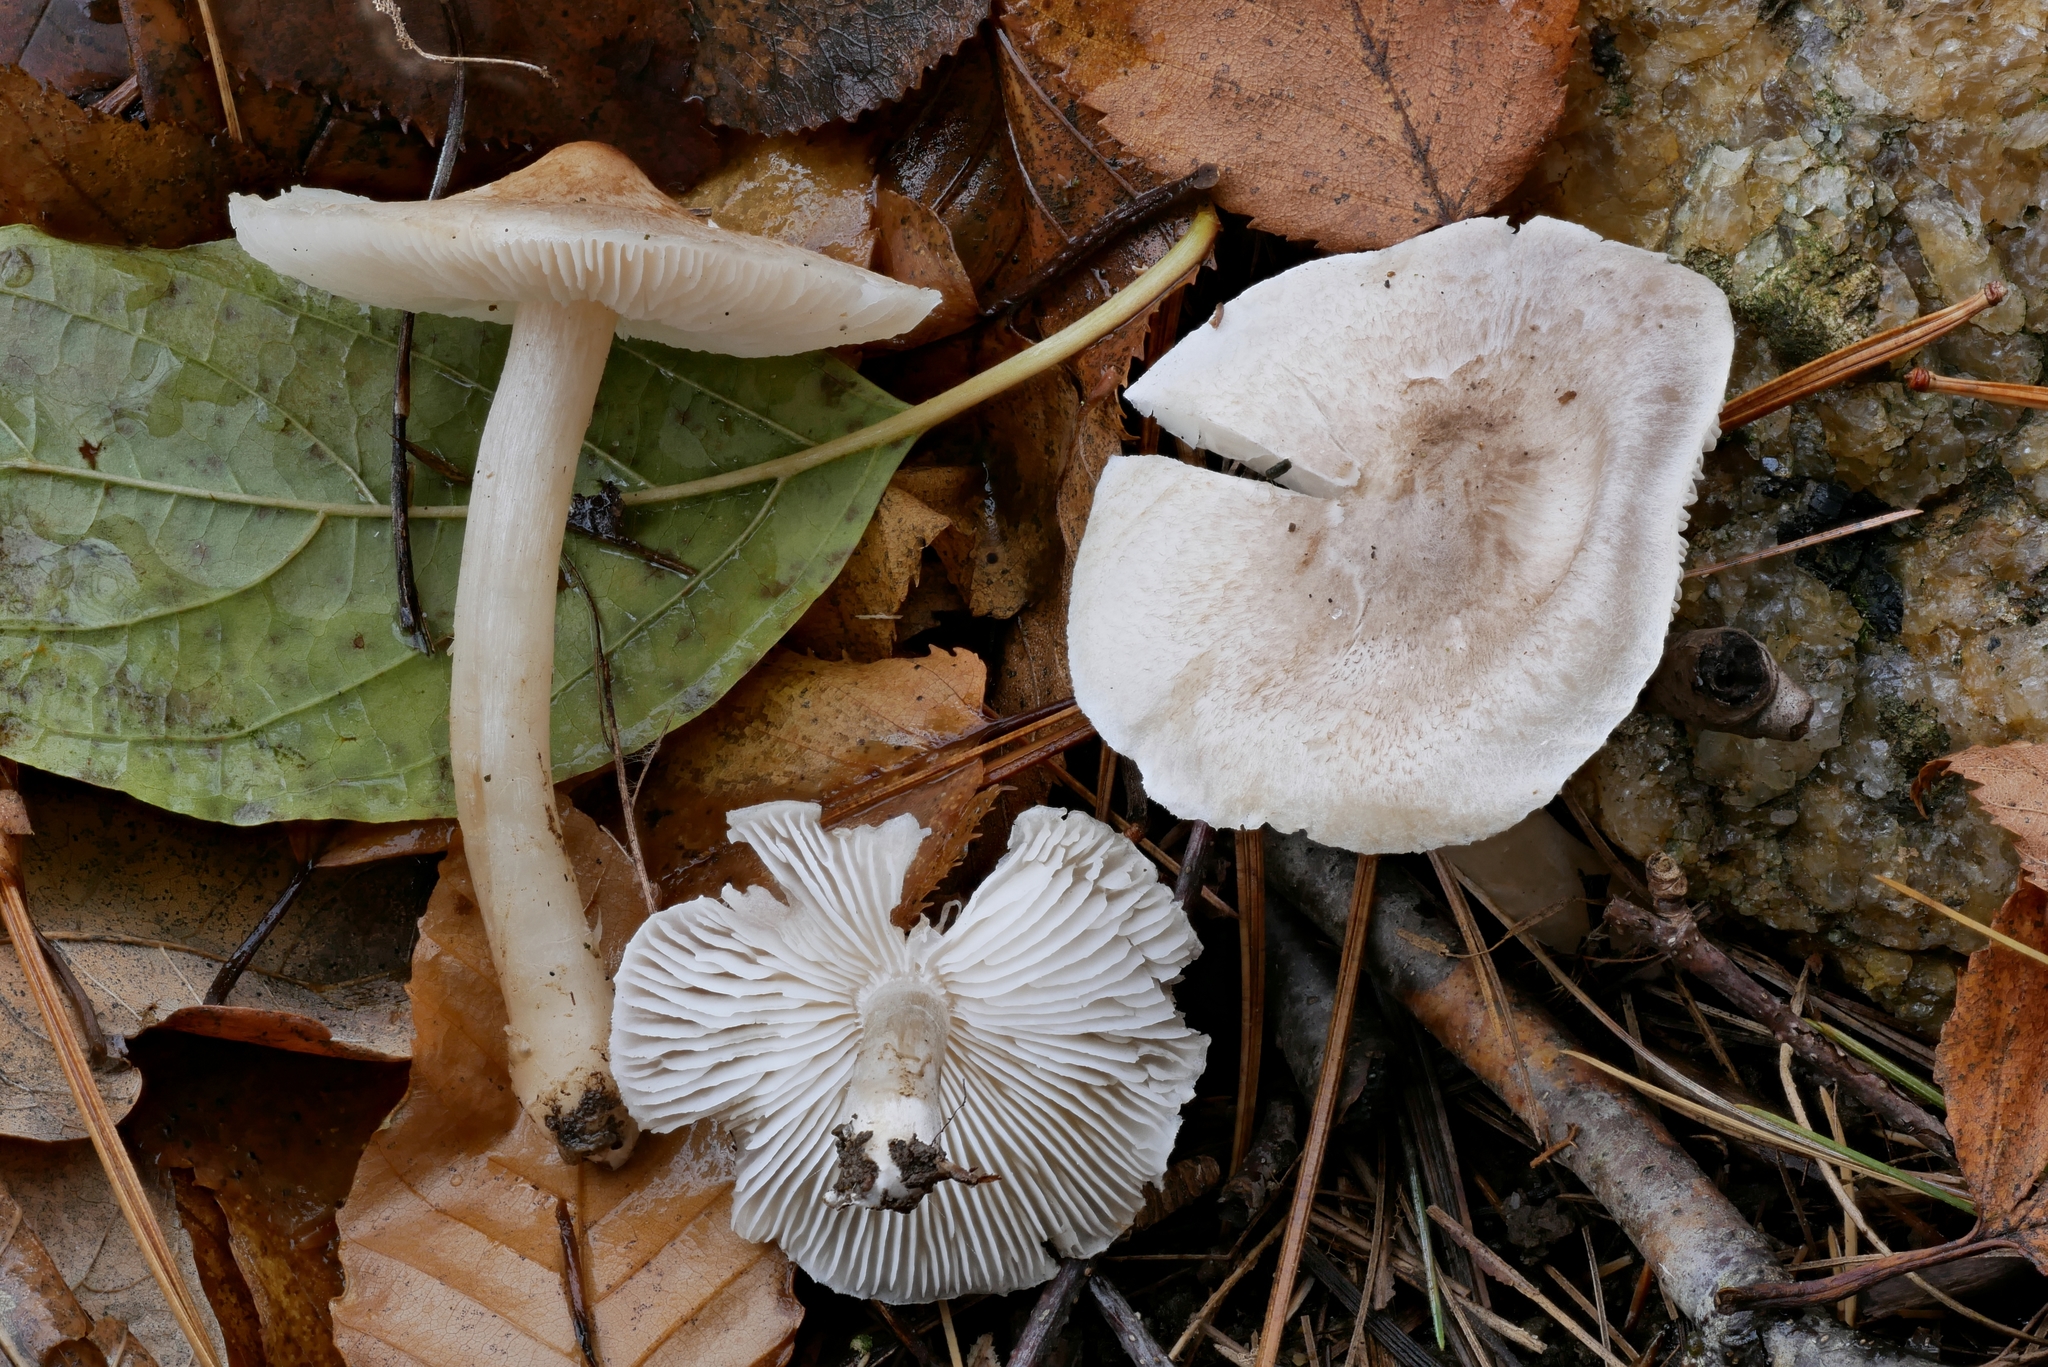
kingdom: Fungi
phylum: Basidiomycota
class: Agaricomycetes
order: Agaricales
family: Tricholomataceae
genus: Tricholoma
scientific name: Tricholoma argyraceum
